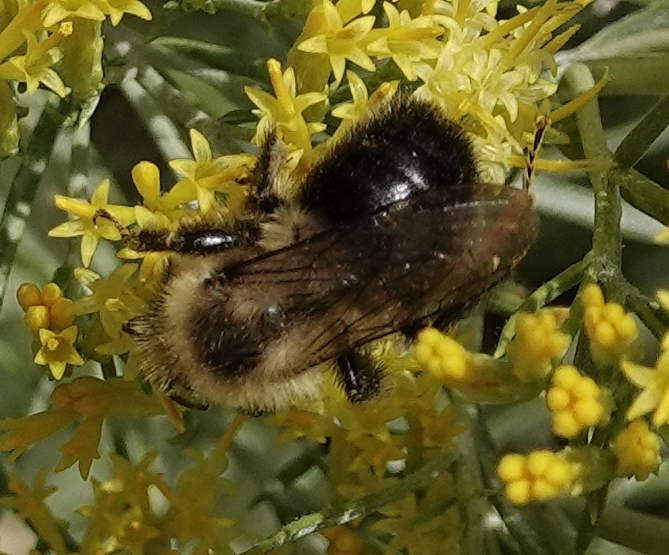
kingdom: Animalia
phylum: Arthropoda
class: Insecta
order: Hymenoptera
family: Apidae
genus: Bombus
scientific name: Bombus impatiens
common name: Common eastern bumble bee
